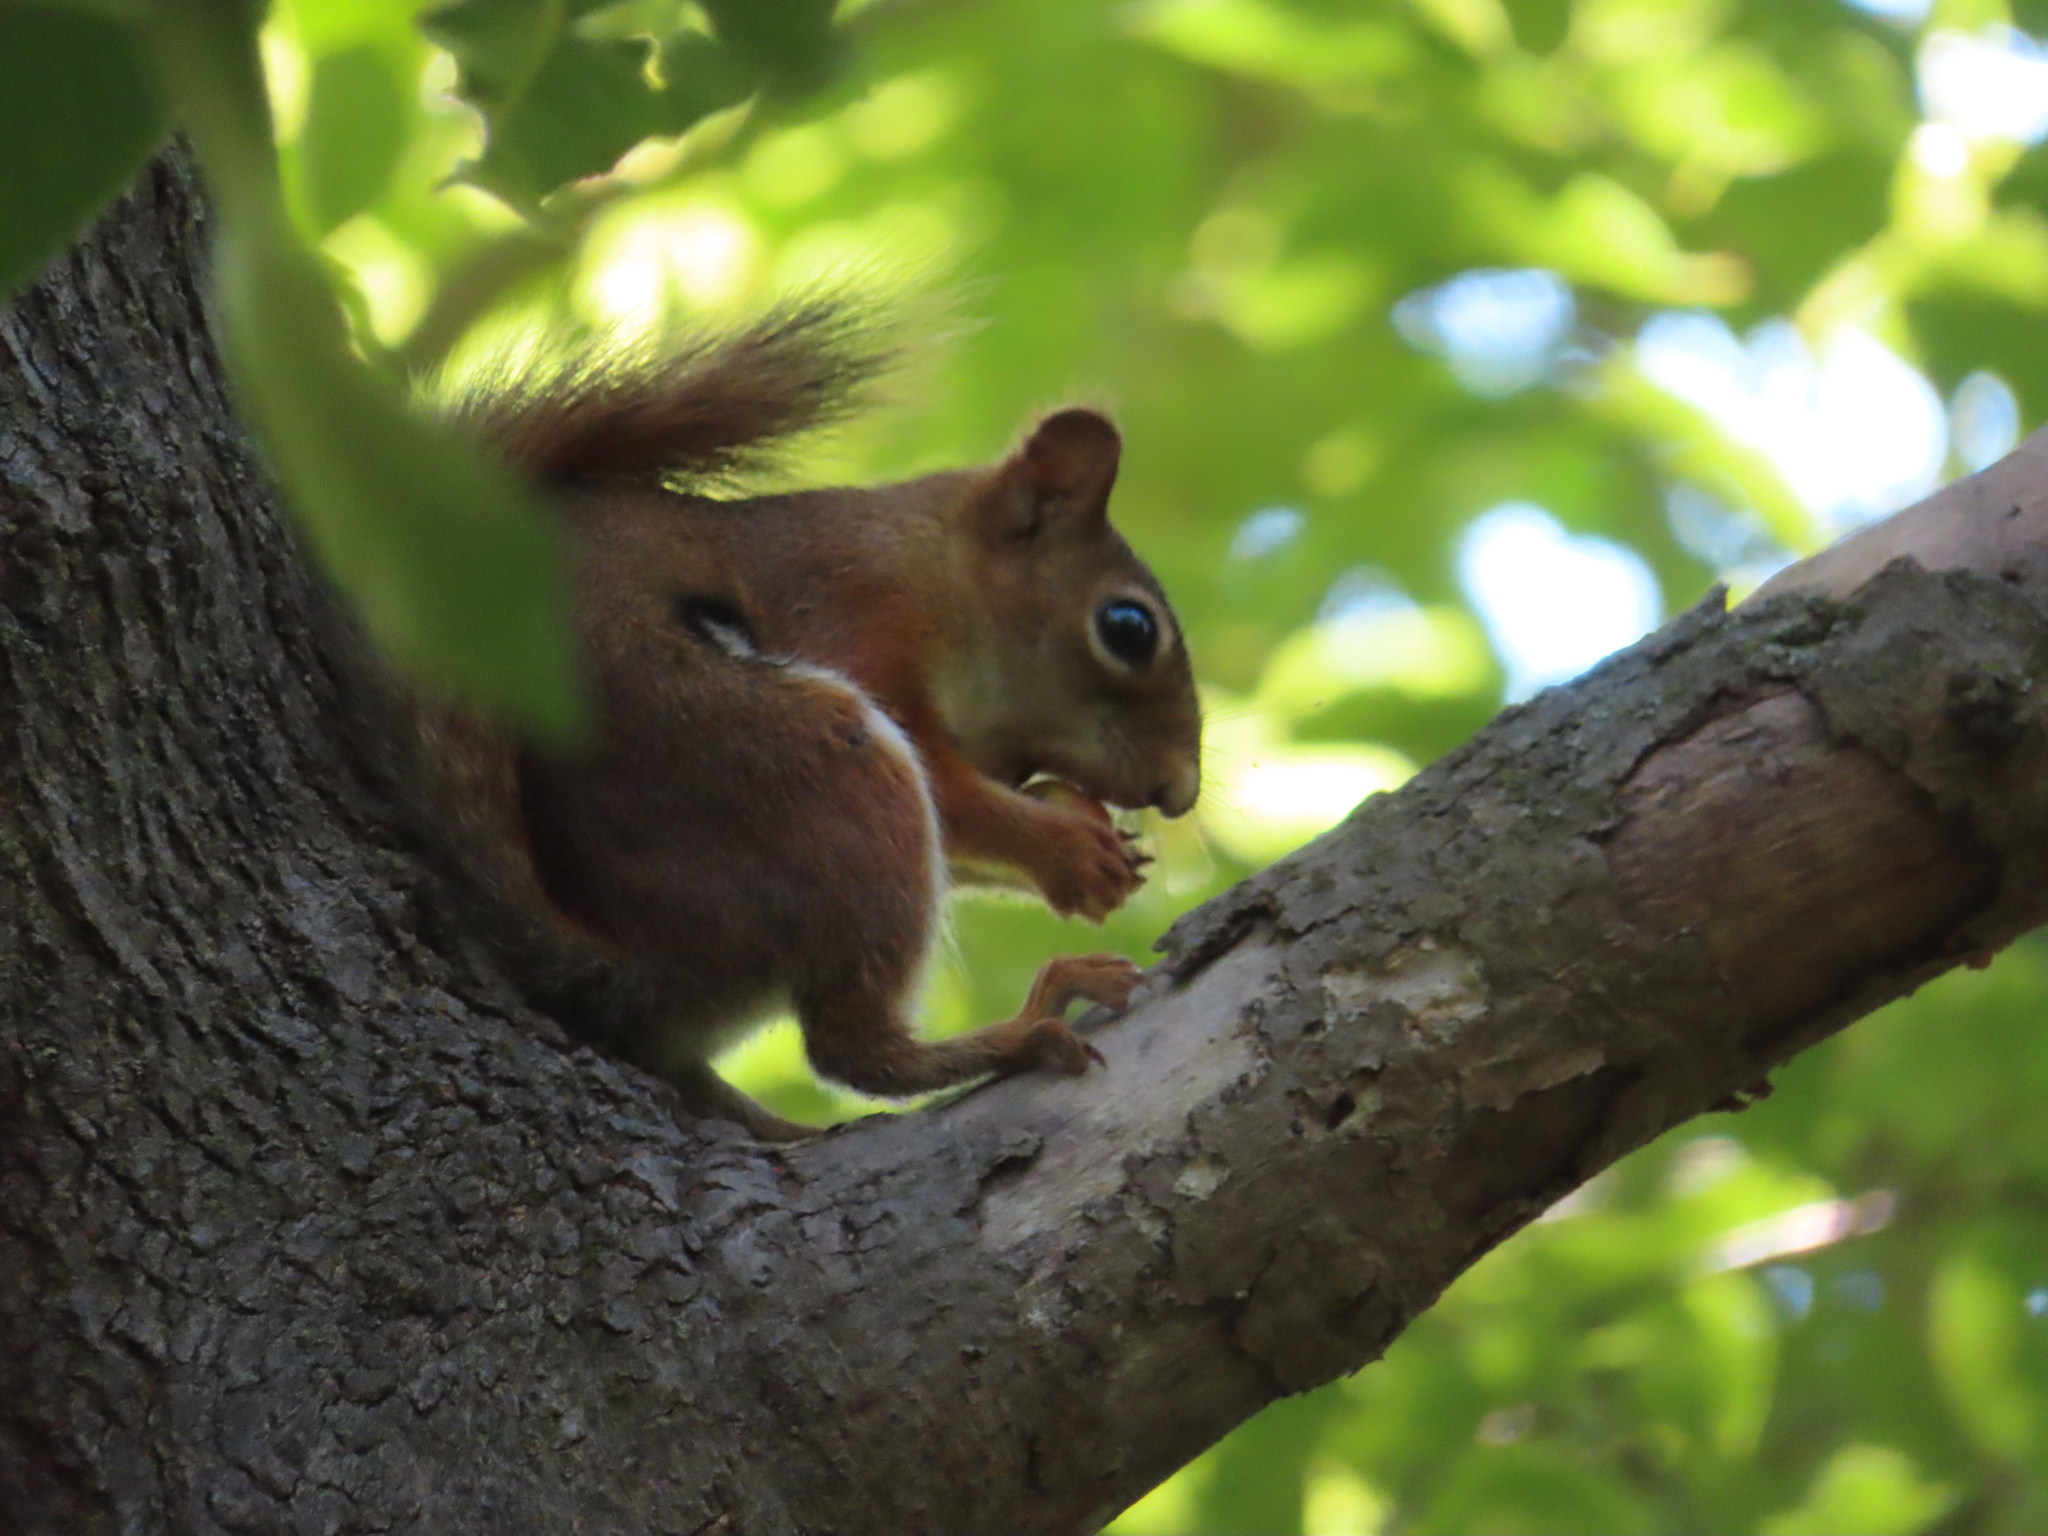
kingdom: Animalia
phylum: Chordata
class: Mammalia
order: Rodentia
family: Sciuridae
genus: Tamiasciurus
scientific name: Tamiasciurus hudsonicus
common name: Red squirrel
